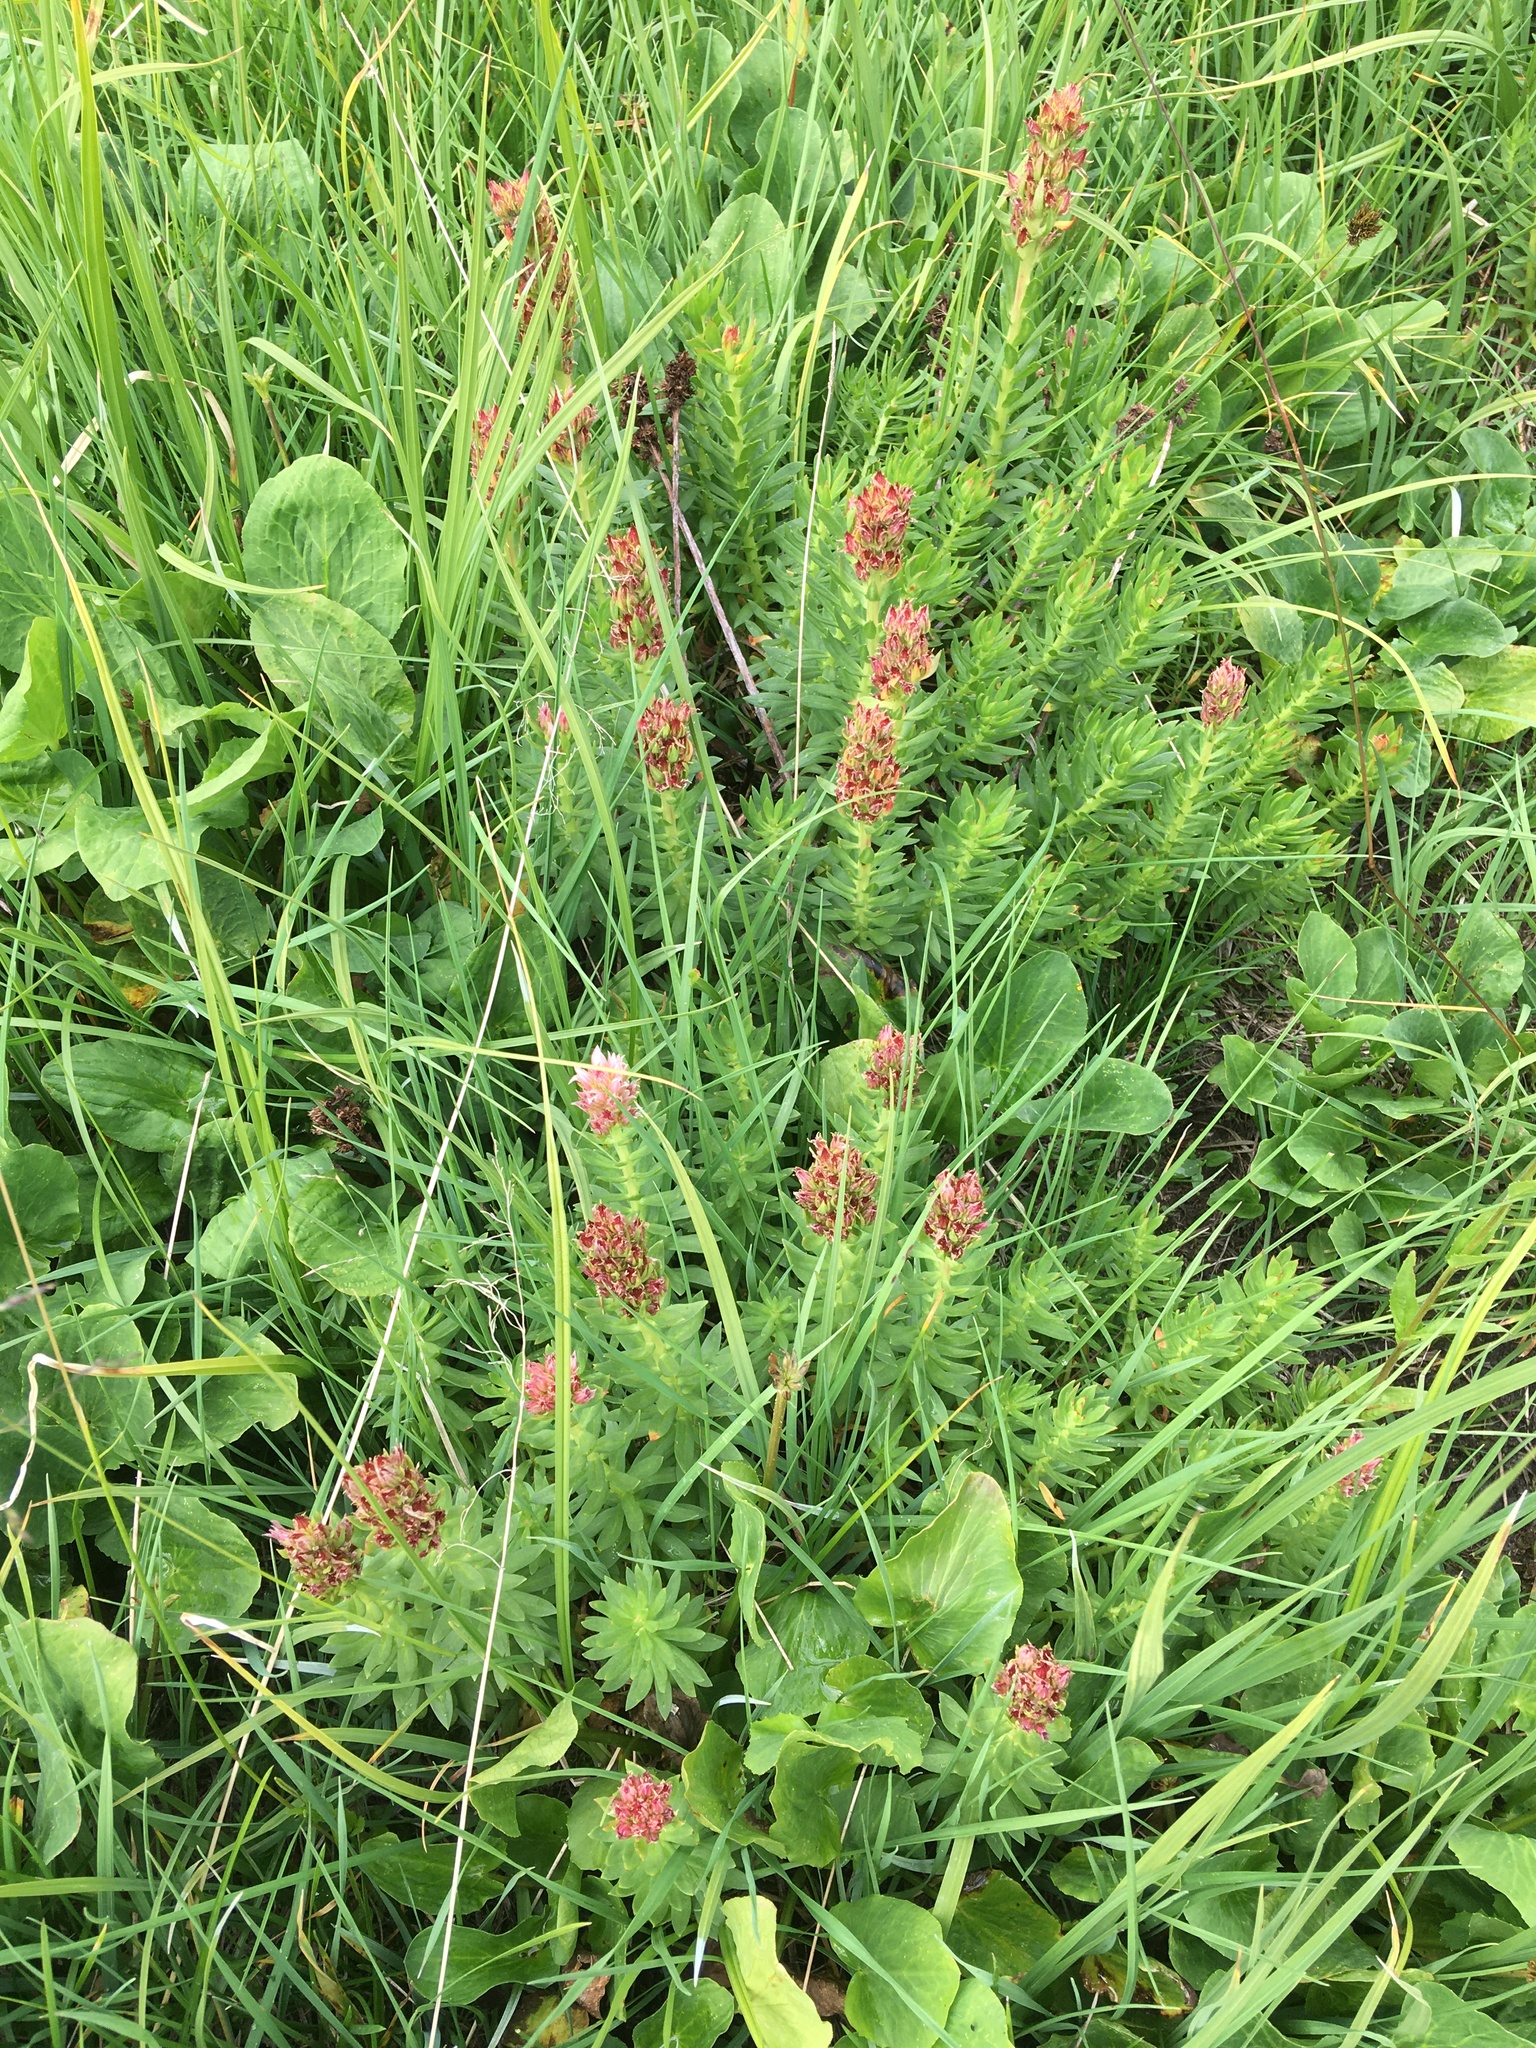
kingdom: Plantae
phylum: Tracheophyta
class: Magnoliopsida
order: Saxifragales
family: Crassulaceae
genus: Rhodiola
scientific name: Rhodiola rhodantha
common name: Red orpine
